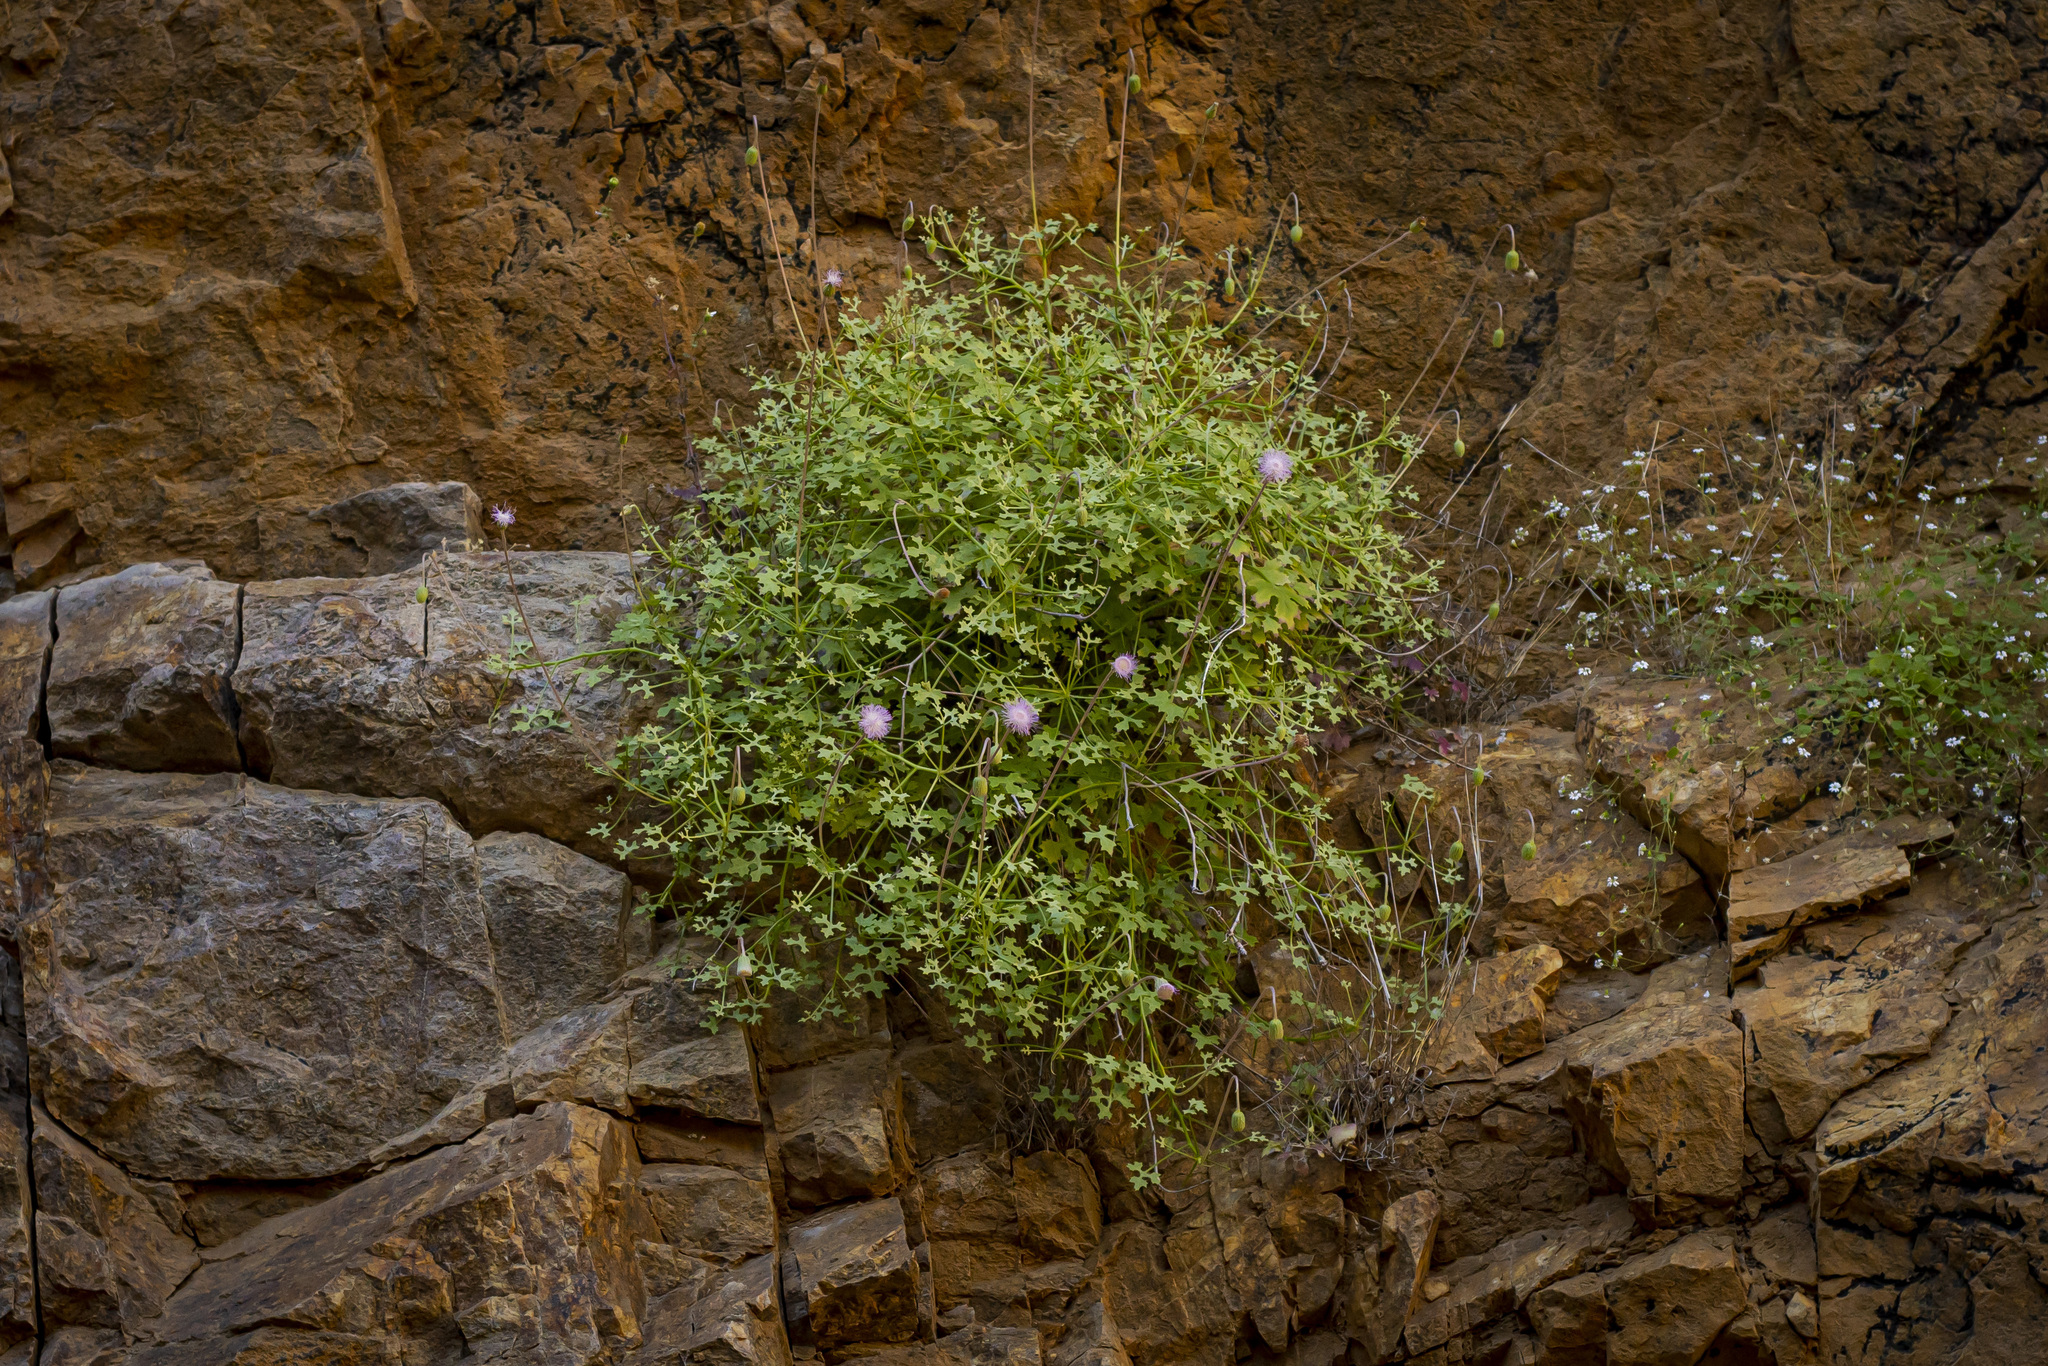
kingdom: Plantae
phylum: Tracheophyta
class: Magnoliopsida
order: Asterales
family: Asteraceae
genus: Hofmeisteria
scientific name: Hofmeisteria fasciculata
